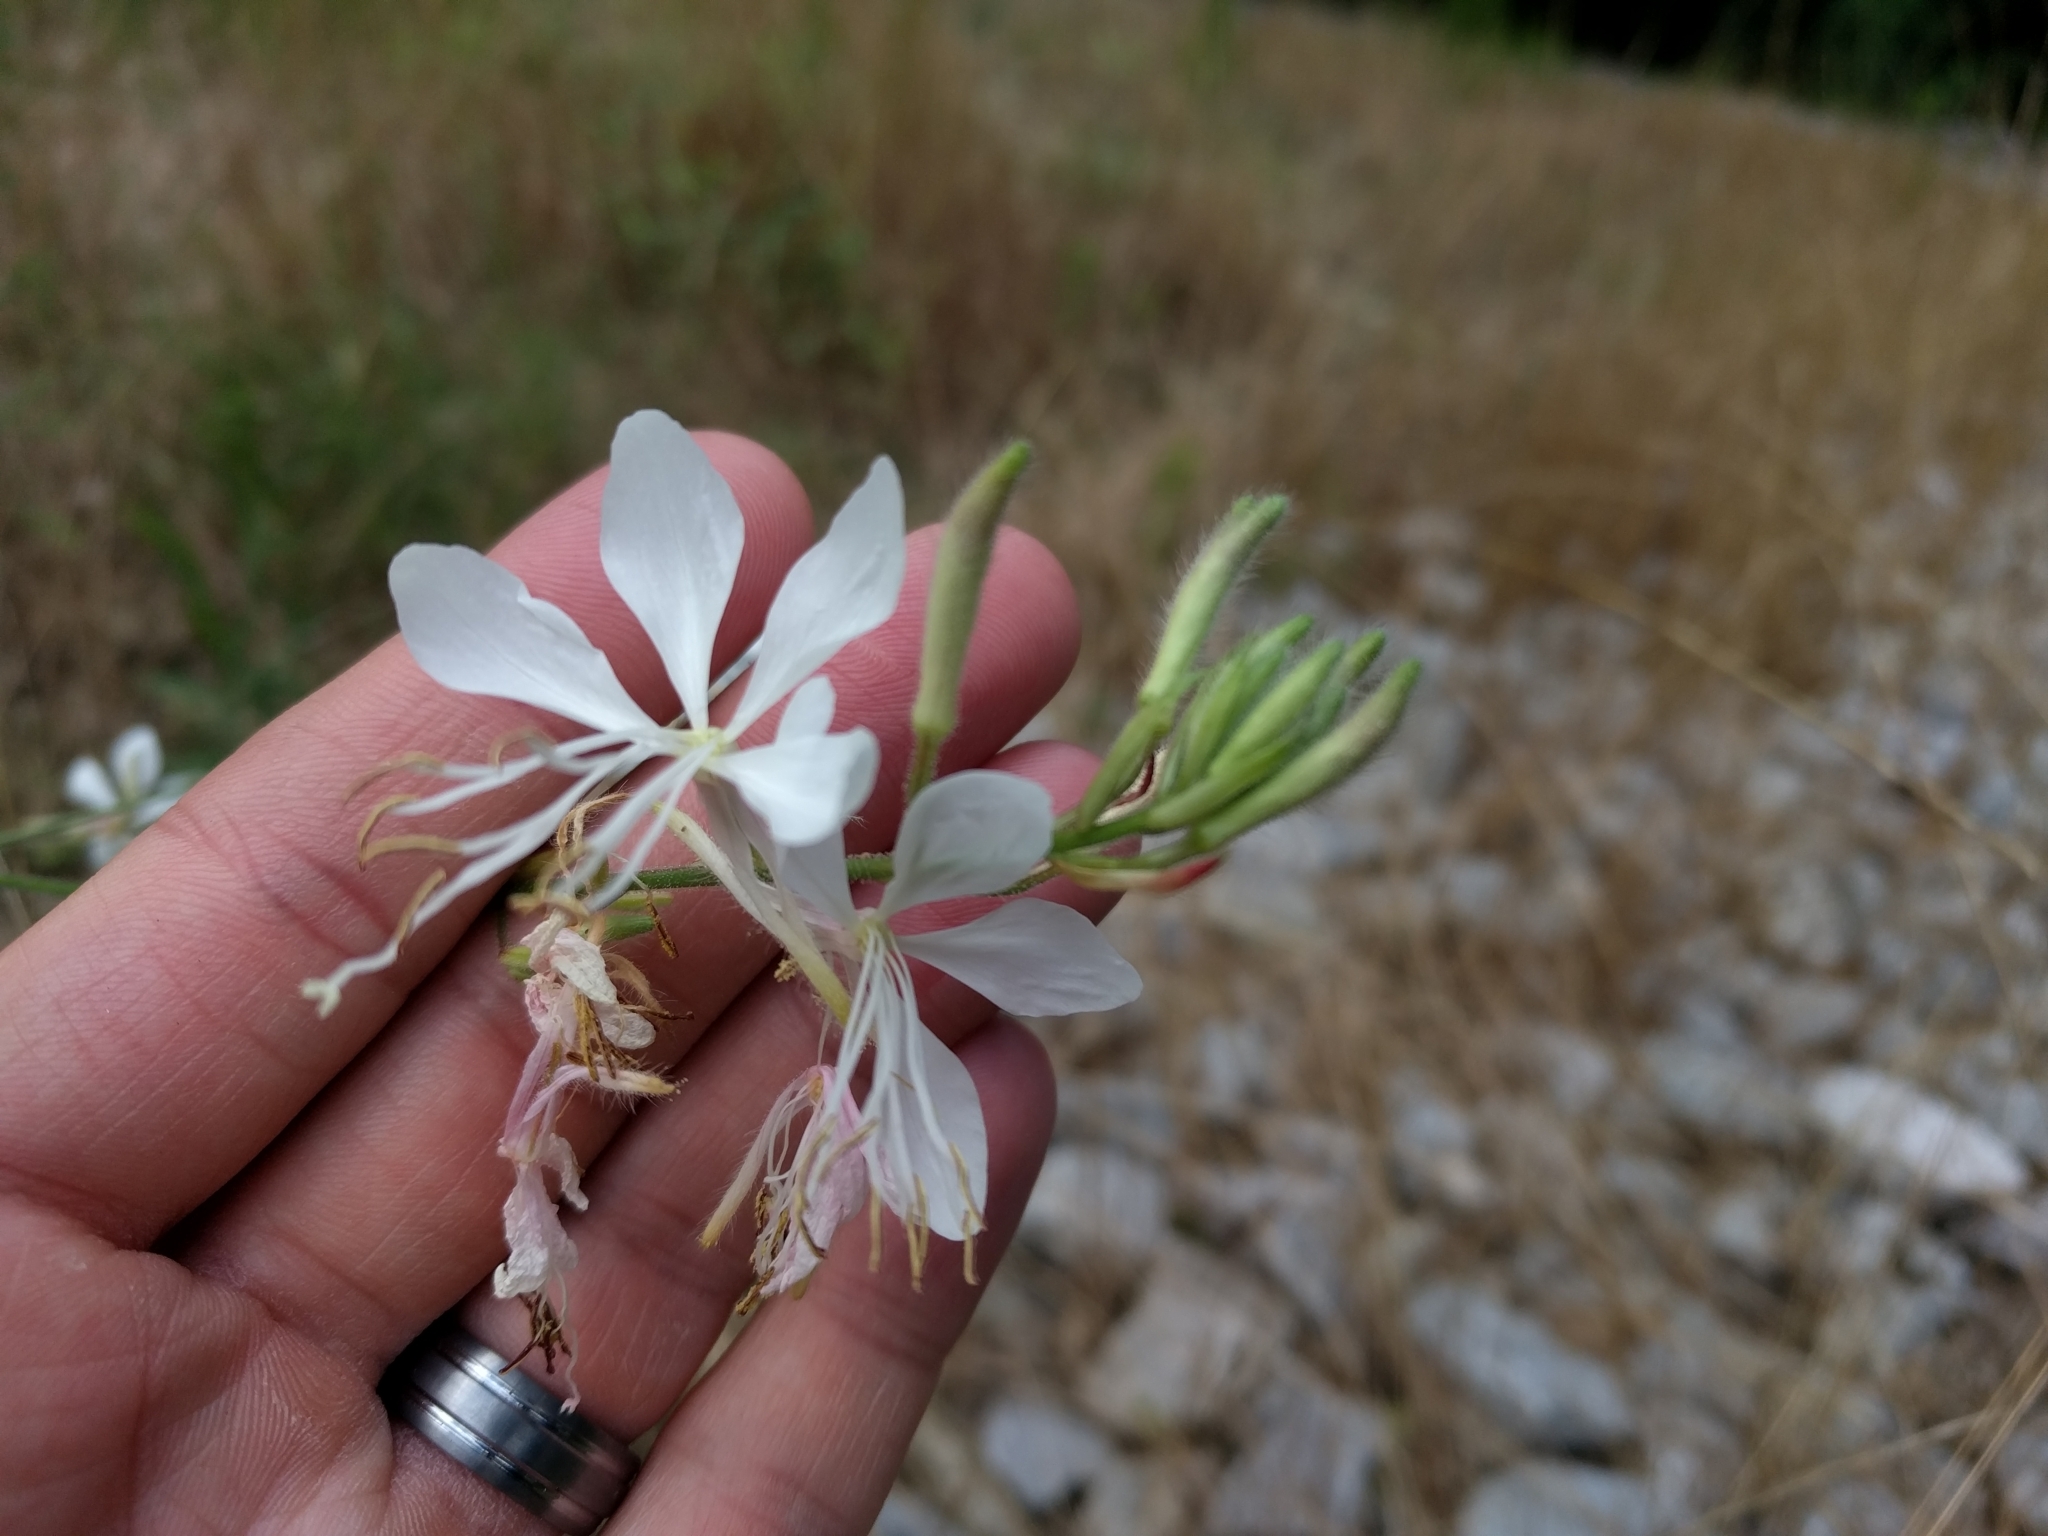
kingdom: Plantae
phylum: Tracheophyta
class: Magnoliopsida
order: Myrtales
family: Onagraceae
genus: Oenothera
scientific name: Oenothera lindheimeri
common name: Lindheimer's beeblossom
